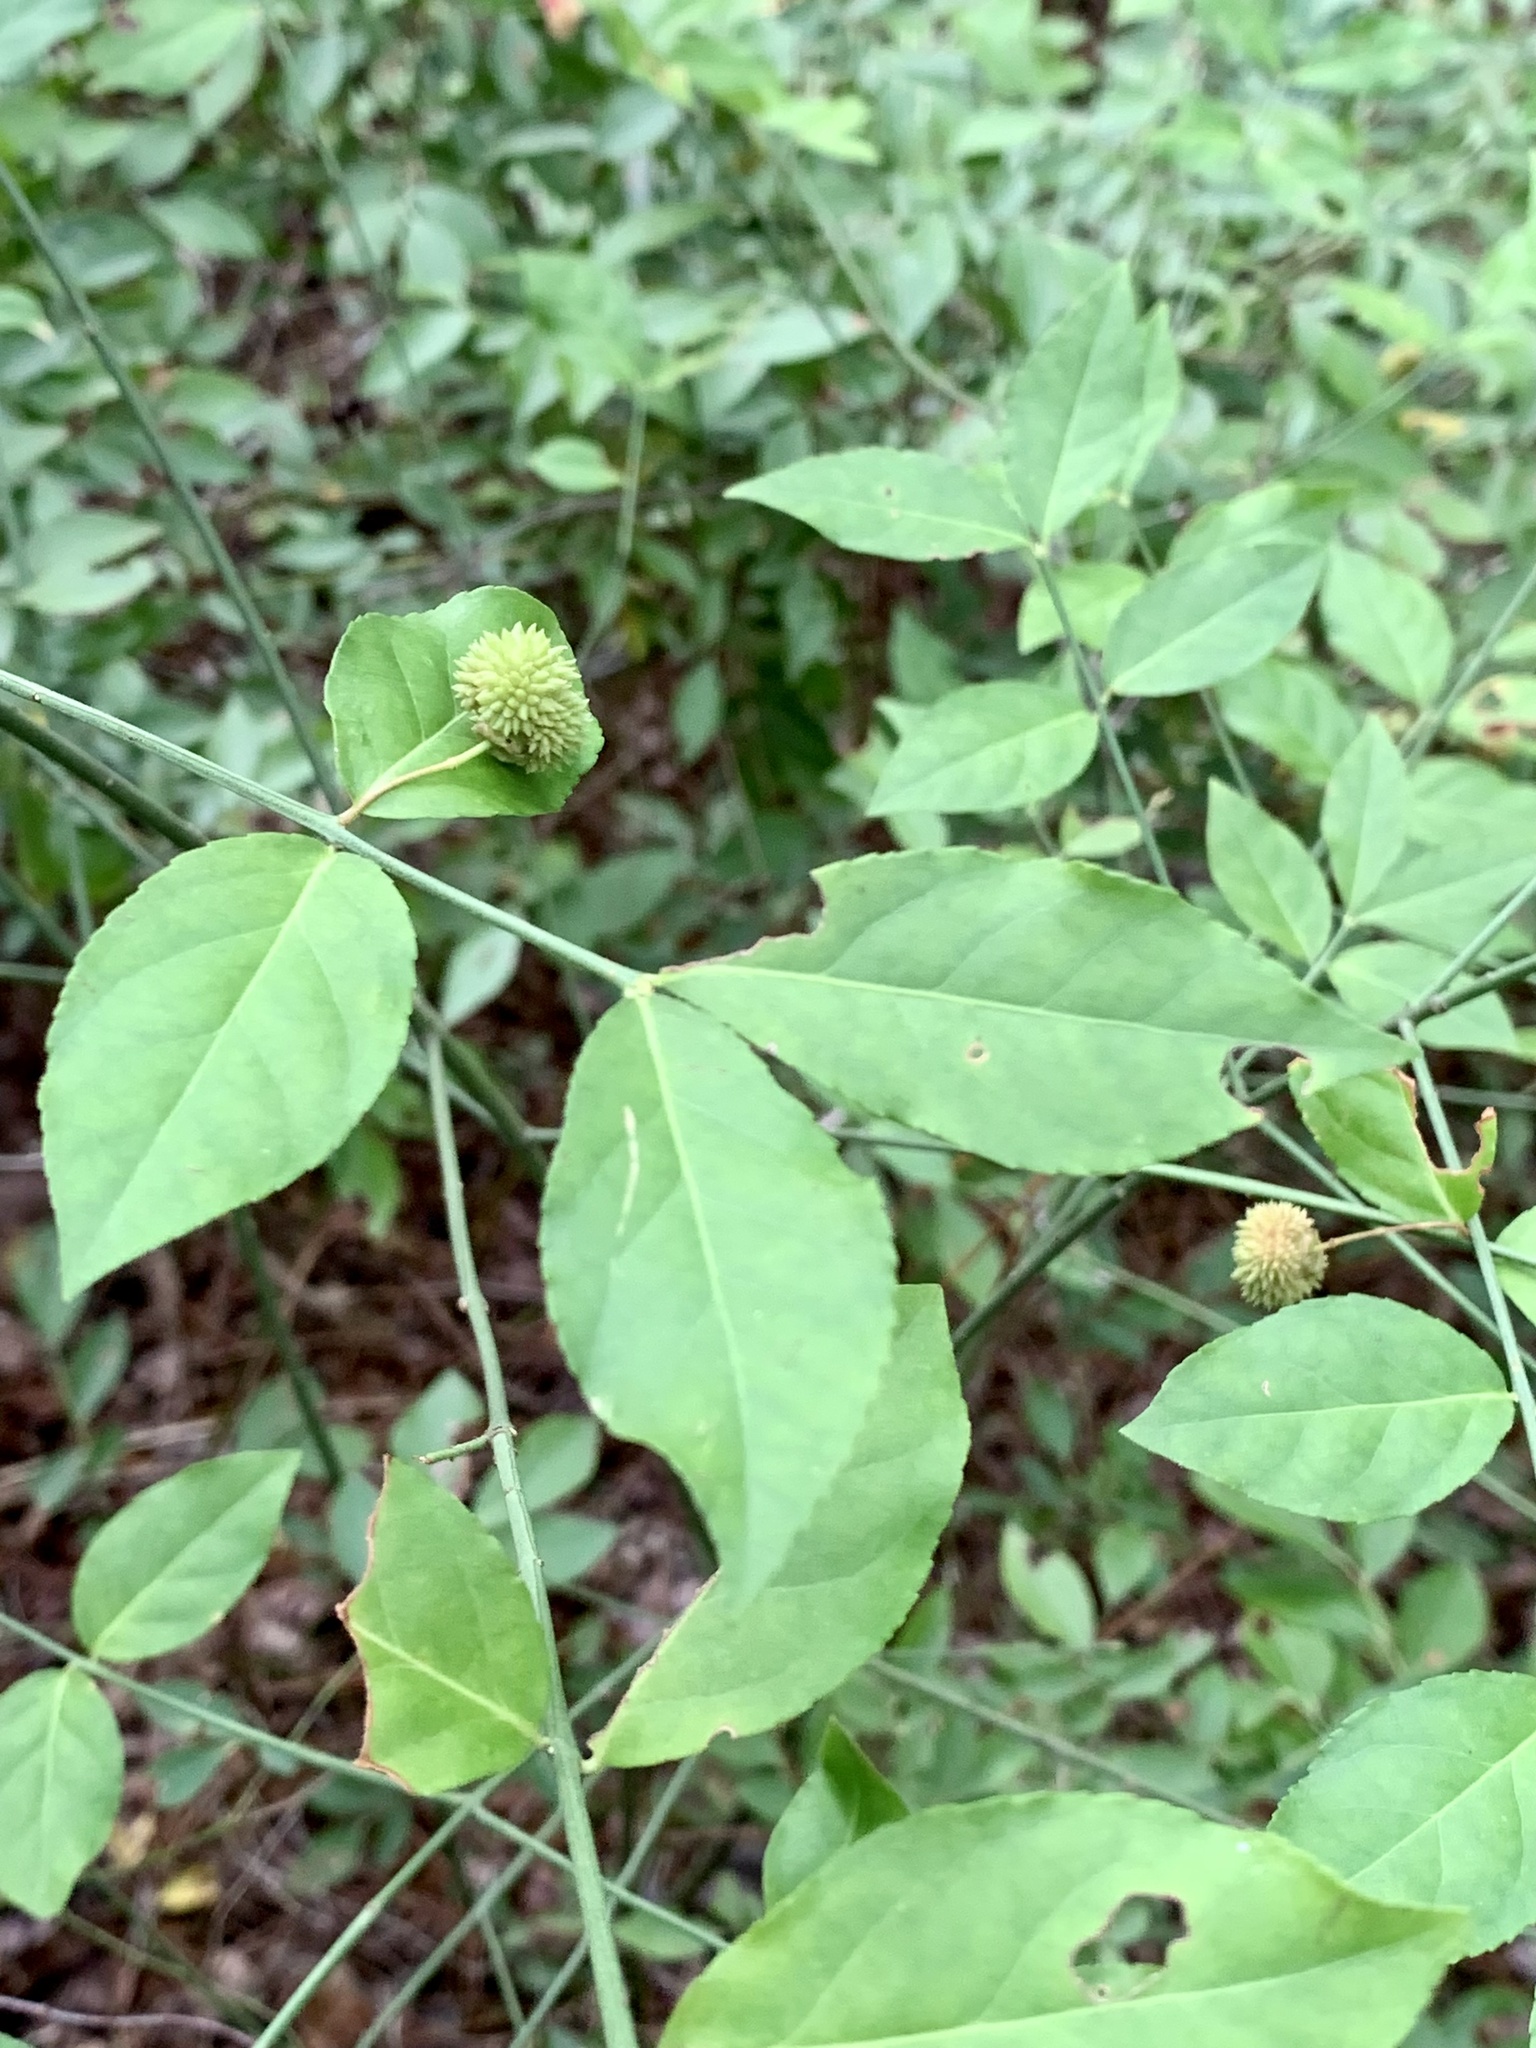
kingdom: Plantae
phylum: Tracheophyta
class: Magnoliopsida
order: Celastrales
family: Celastraceae
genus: Euonymus
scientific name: Euonymus americanus
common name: Bursting-heart
